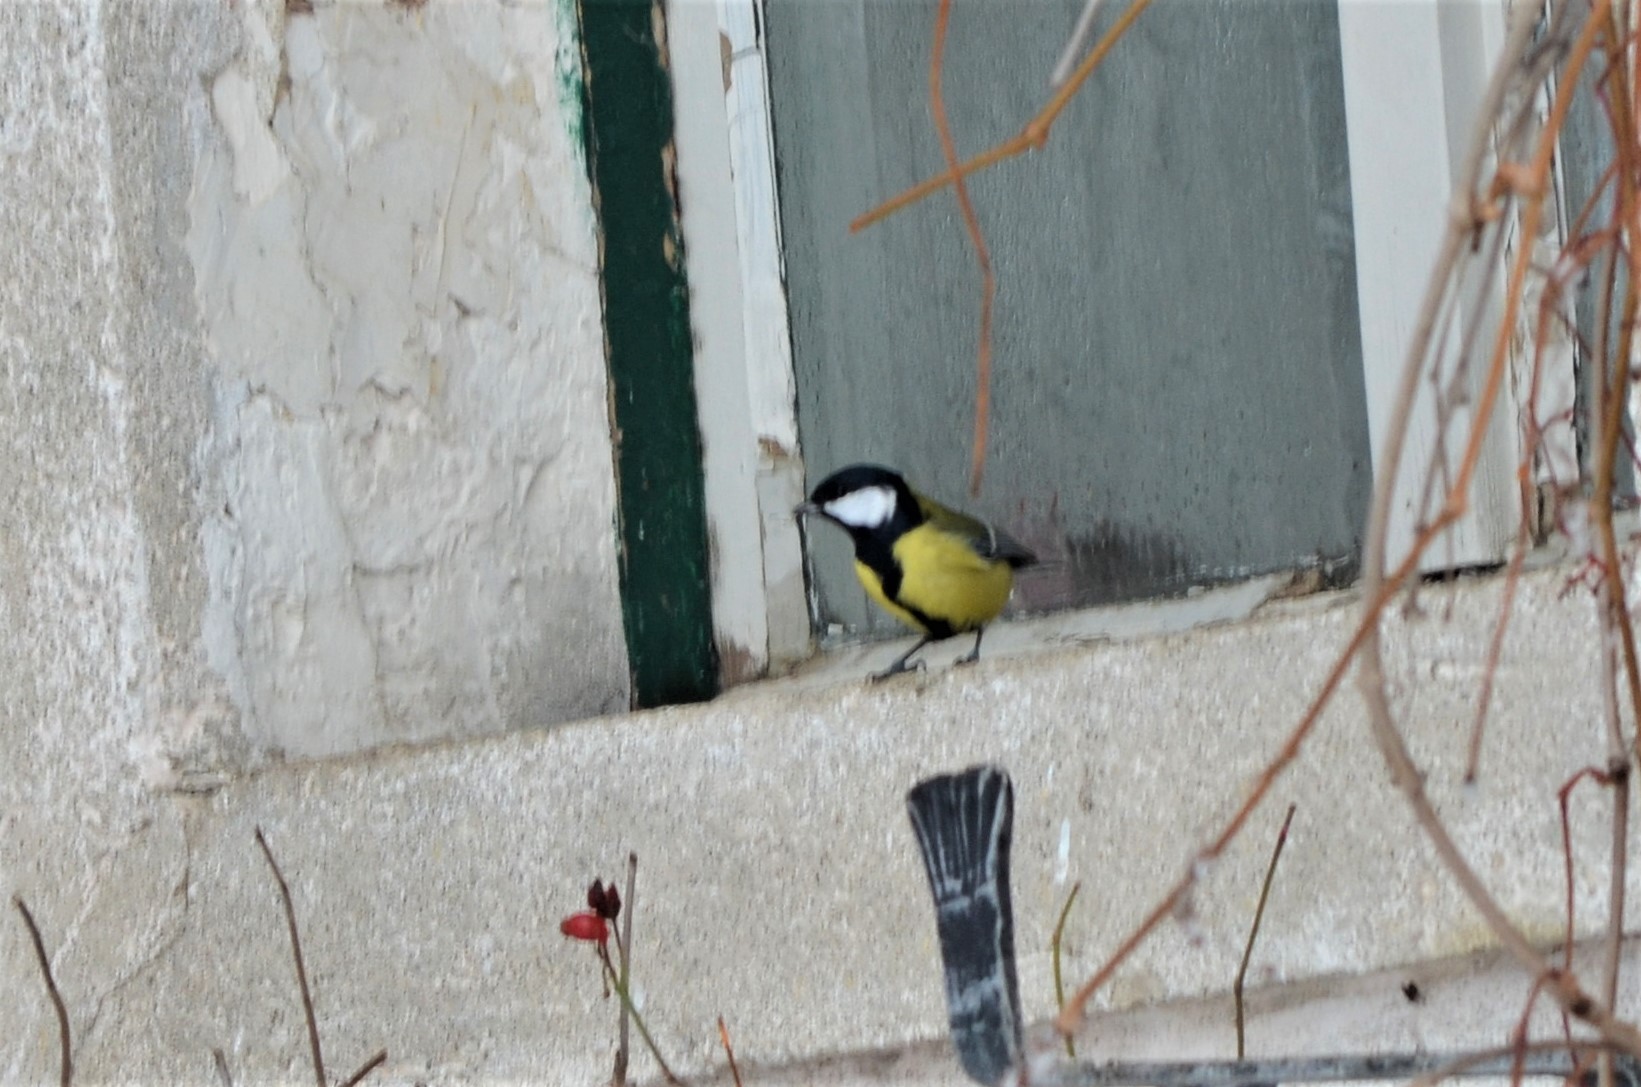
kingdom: Animalia
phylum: Chordata
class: Aves
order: Passeriformes
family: Paridae
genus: Parus
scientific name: Parus major
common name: Great tit
